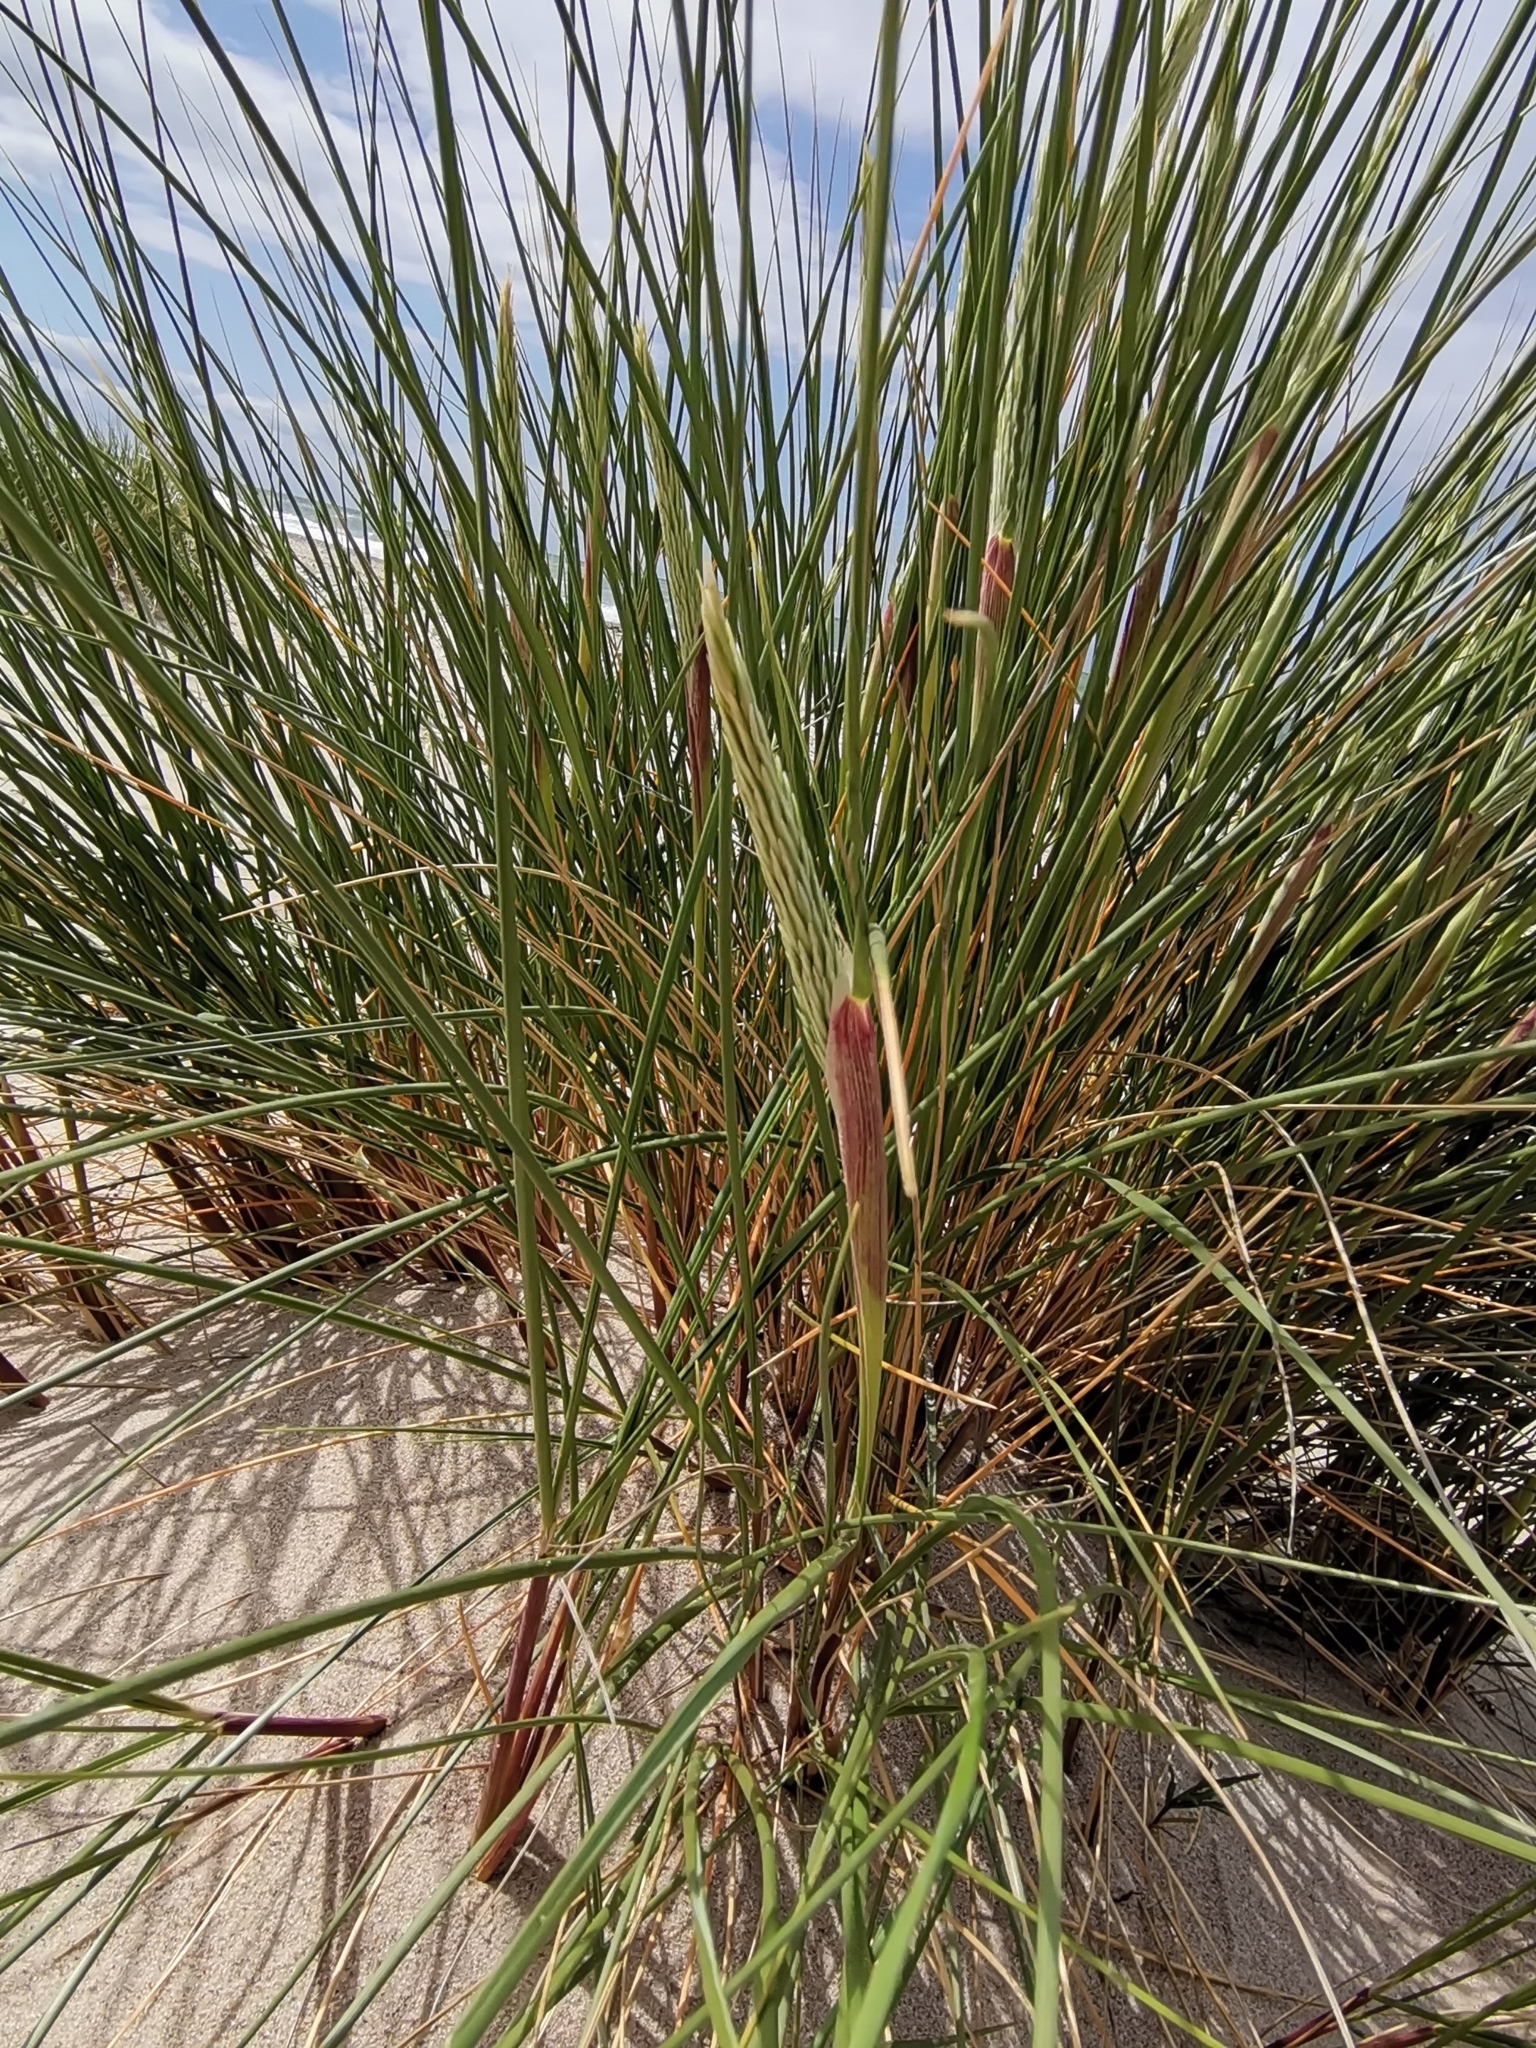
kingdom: Plantae
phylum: Tracheophyta
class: Liliopsida
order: Poales
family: Poaceae
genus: Calamagrostis
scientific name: Calamagrostis arenaria
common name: European beachgrass
